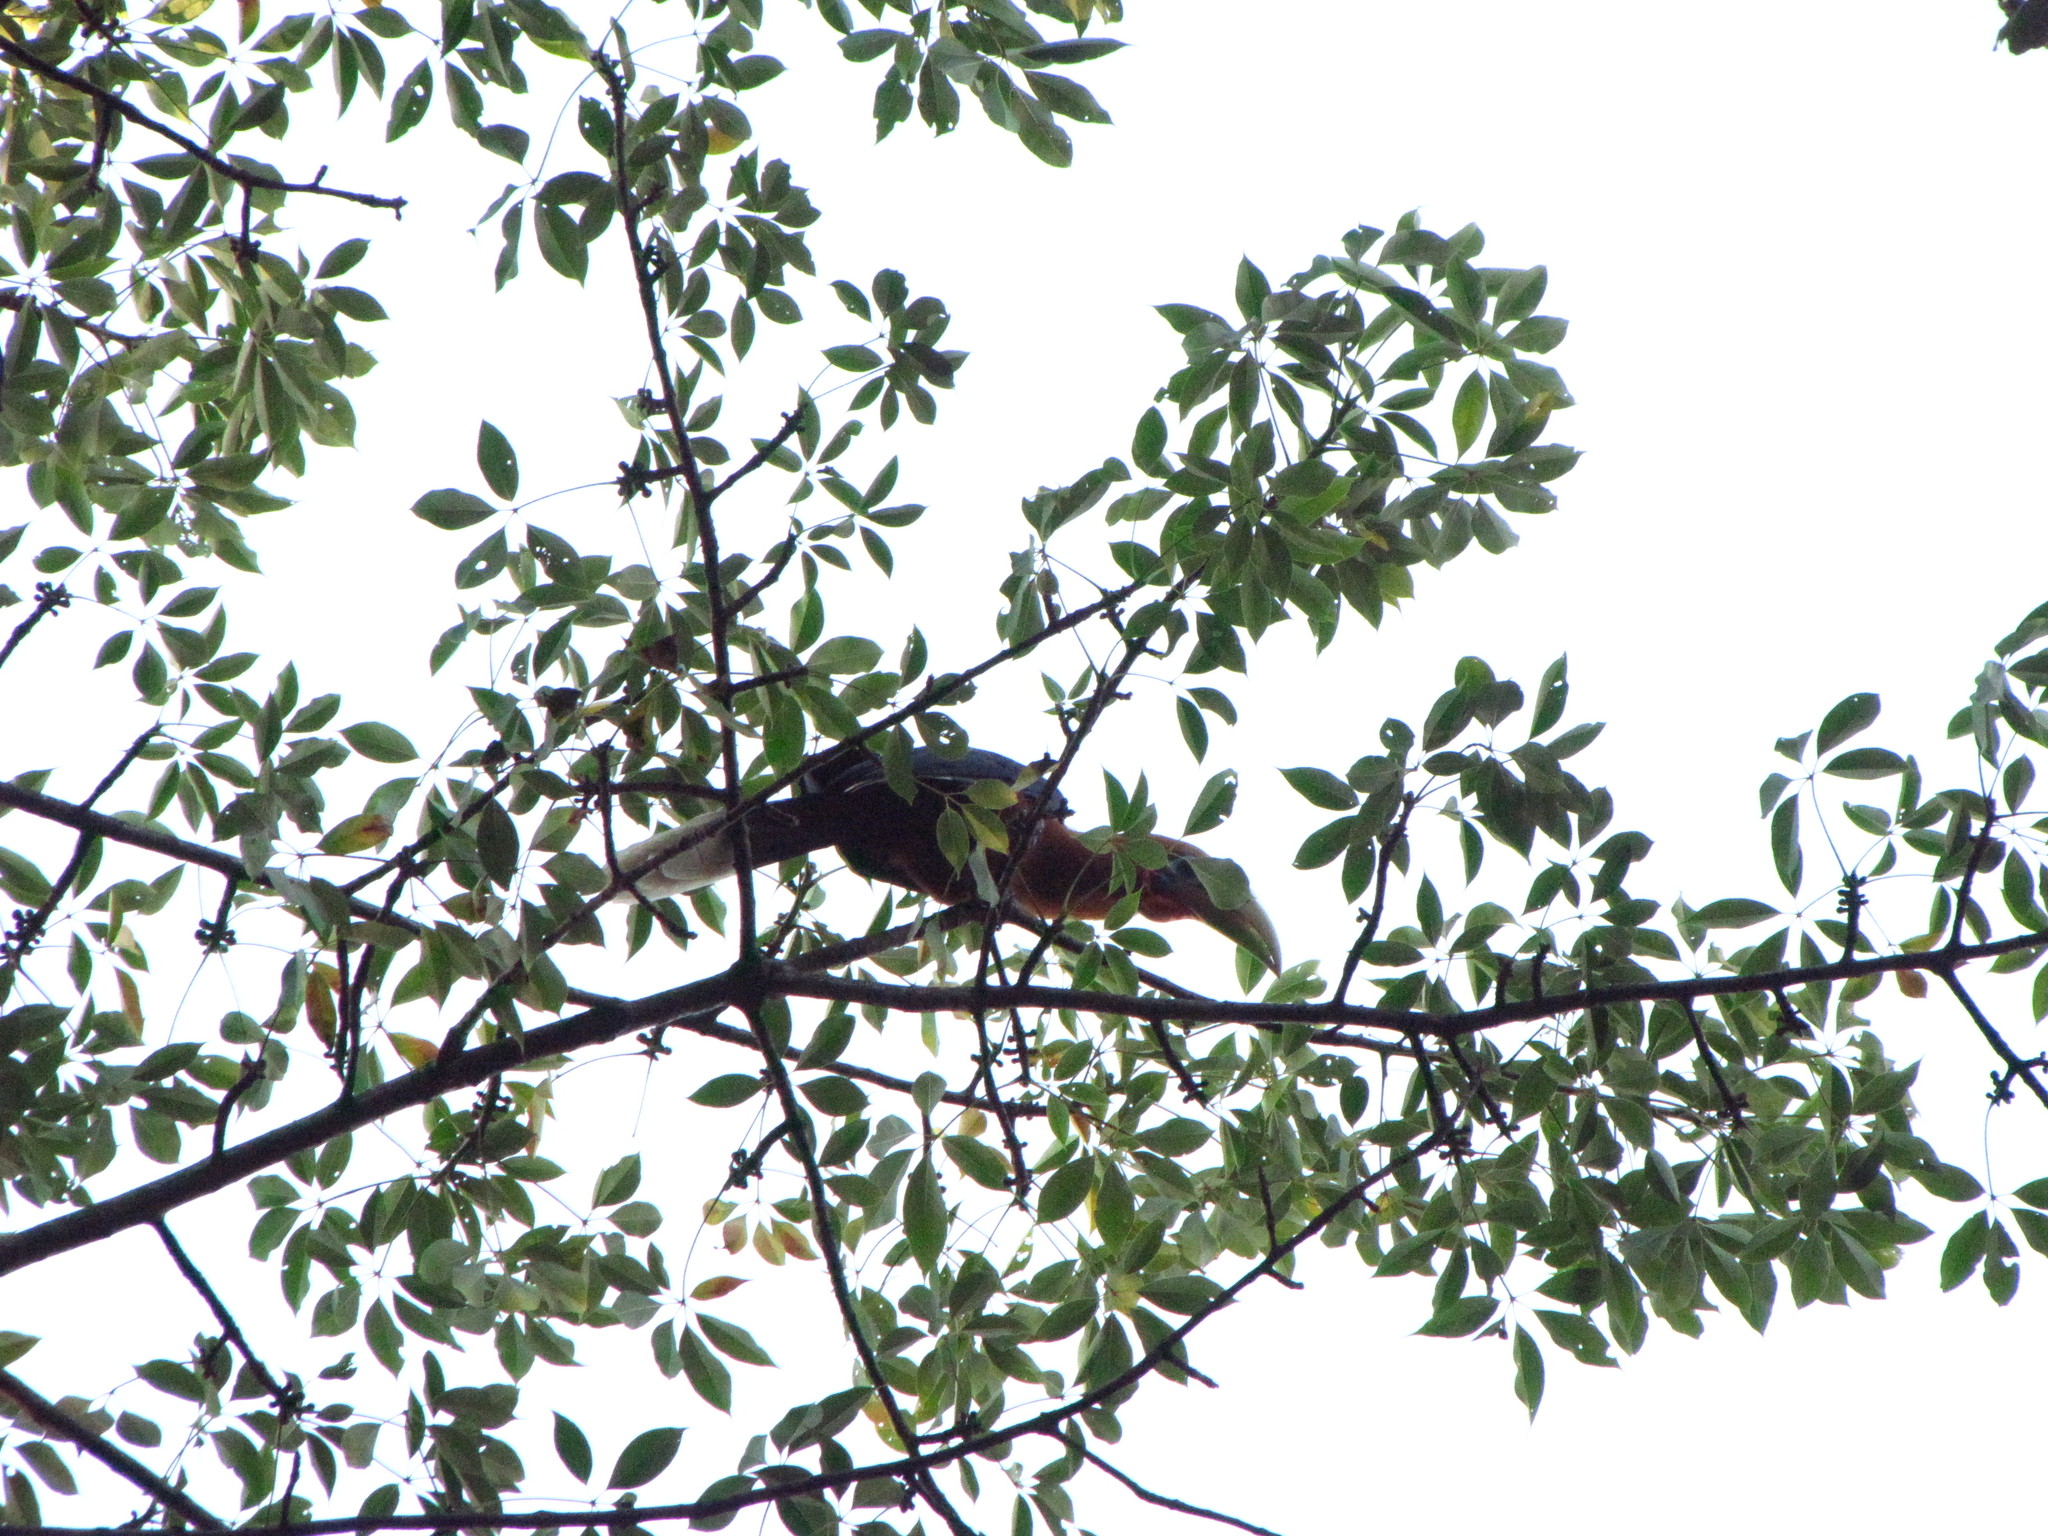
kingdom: Animalia
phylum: Chordata
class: Aves
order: Bucerotiformes
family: Bucerotidae
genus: Aceros
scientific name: Aceros nipalensis
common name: Rufous-necked hornbill
